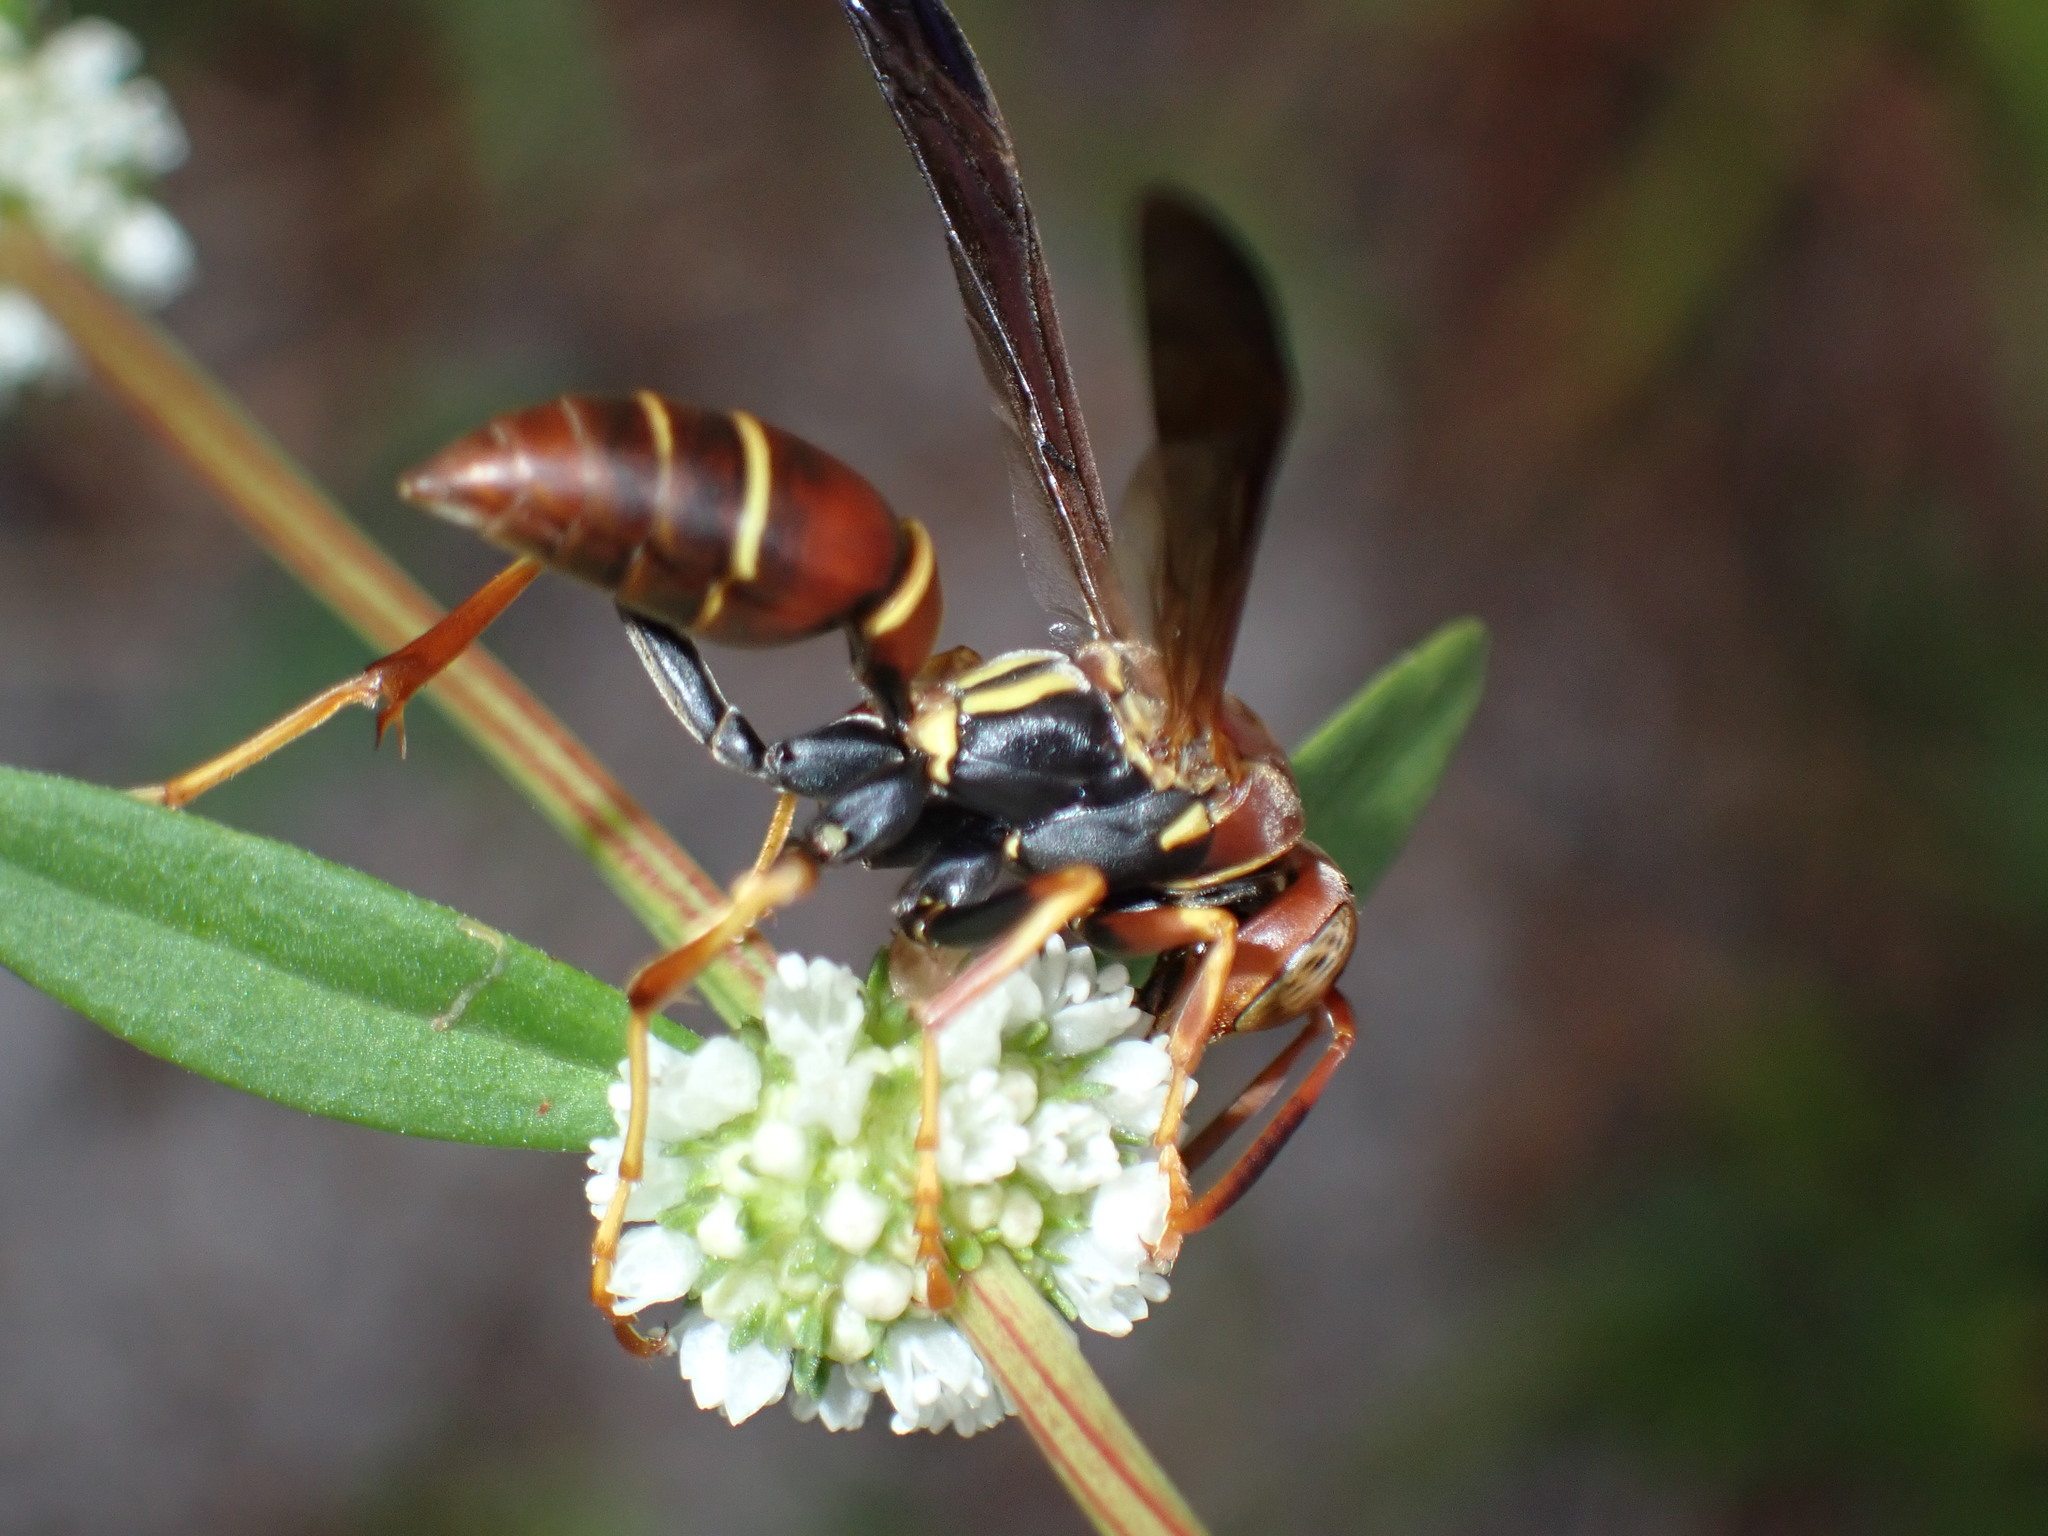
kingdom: Animalia
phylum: Arthropoda
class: Insecta
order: Hymenoptera
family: Eumenidae
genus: Polistes
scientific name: Polistes dorsalis
